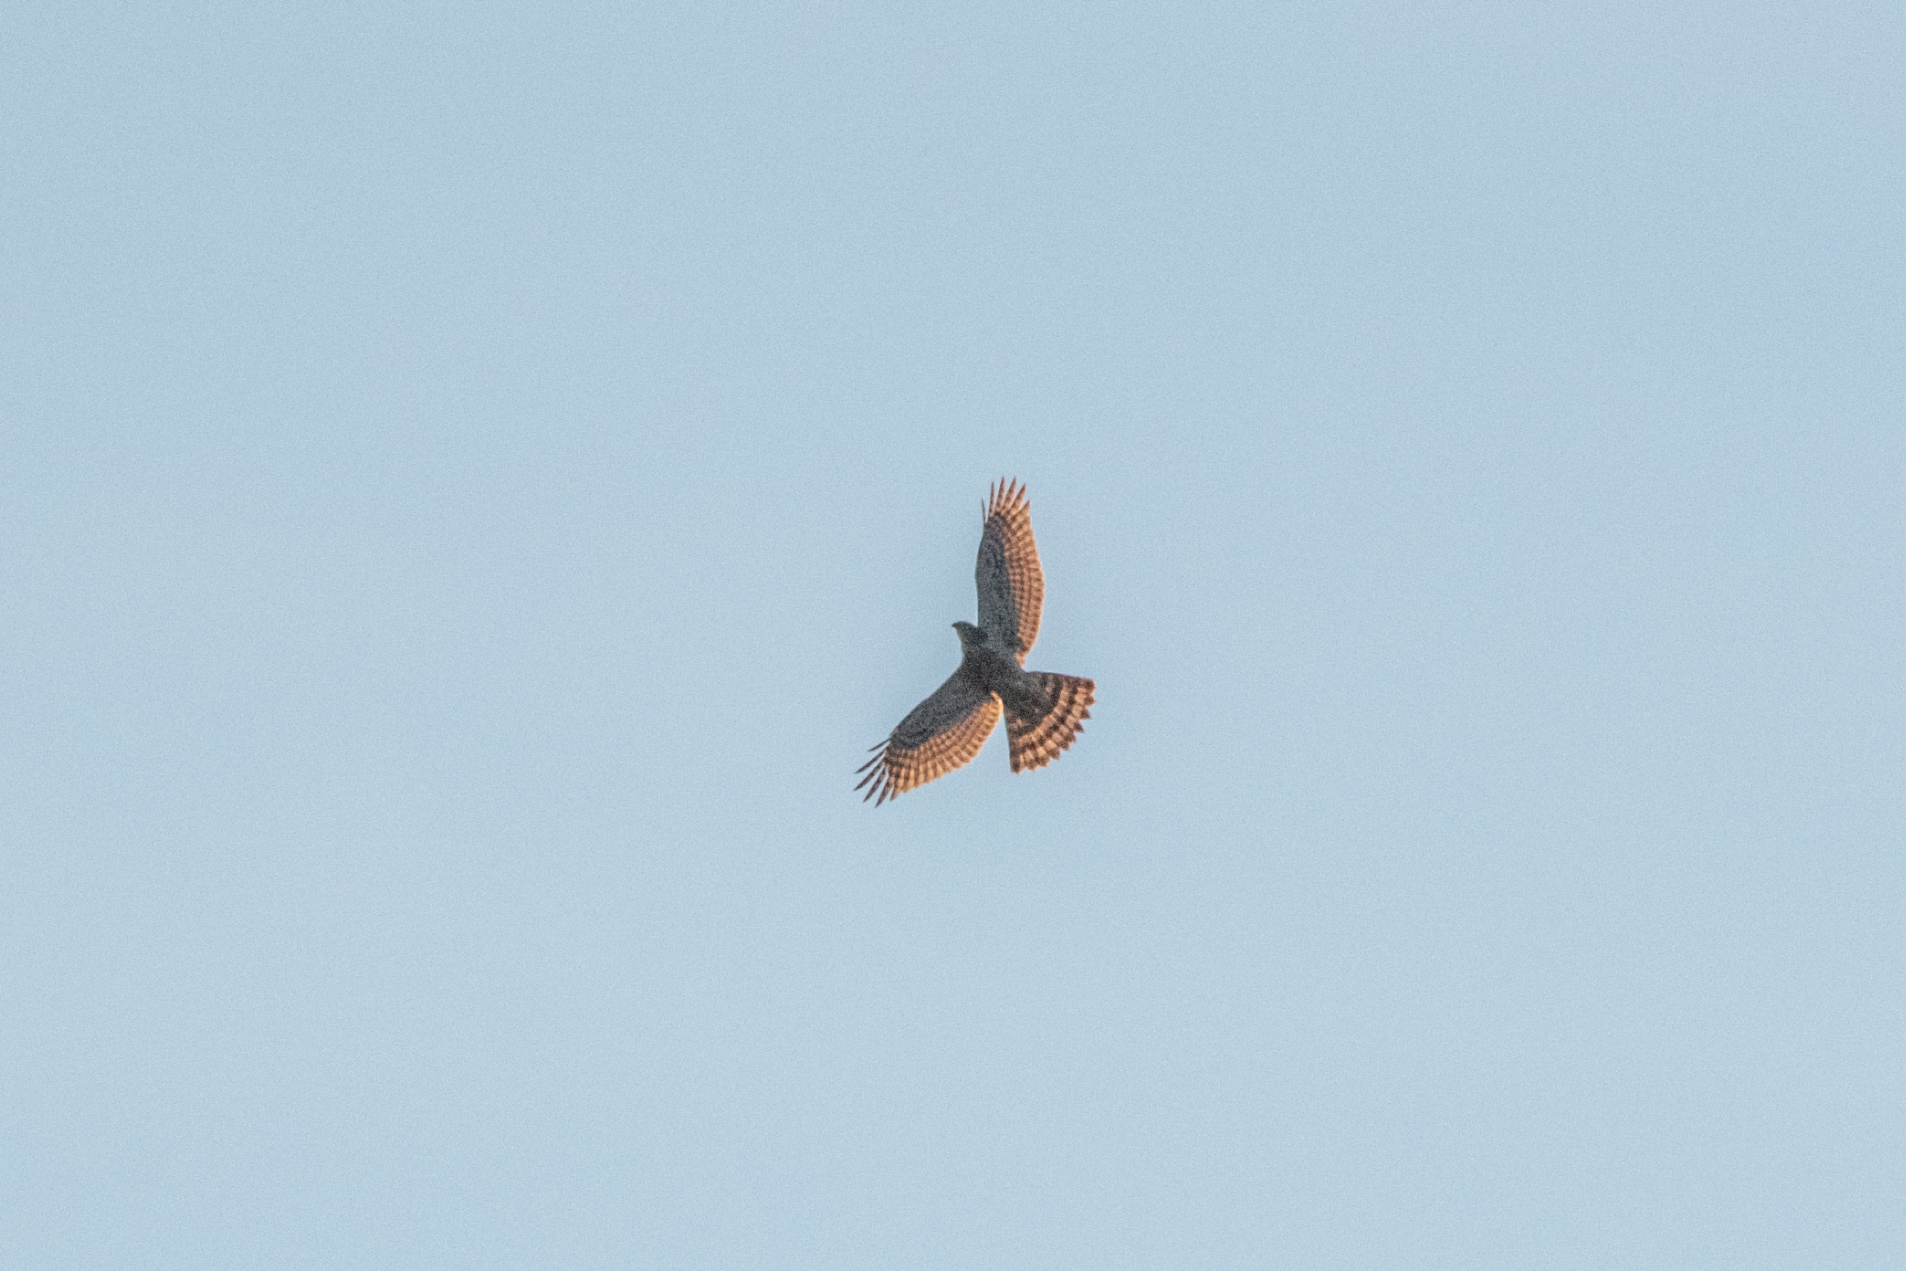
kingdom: Animalia
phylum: Chordata
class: Aves
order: Accipitriformes
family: Accipitridae
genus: Accipiter
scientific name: Accipiter gentilis
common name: Northern goshawk
